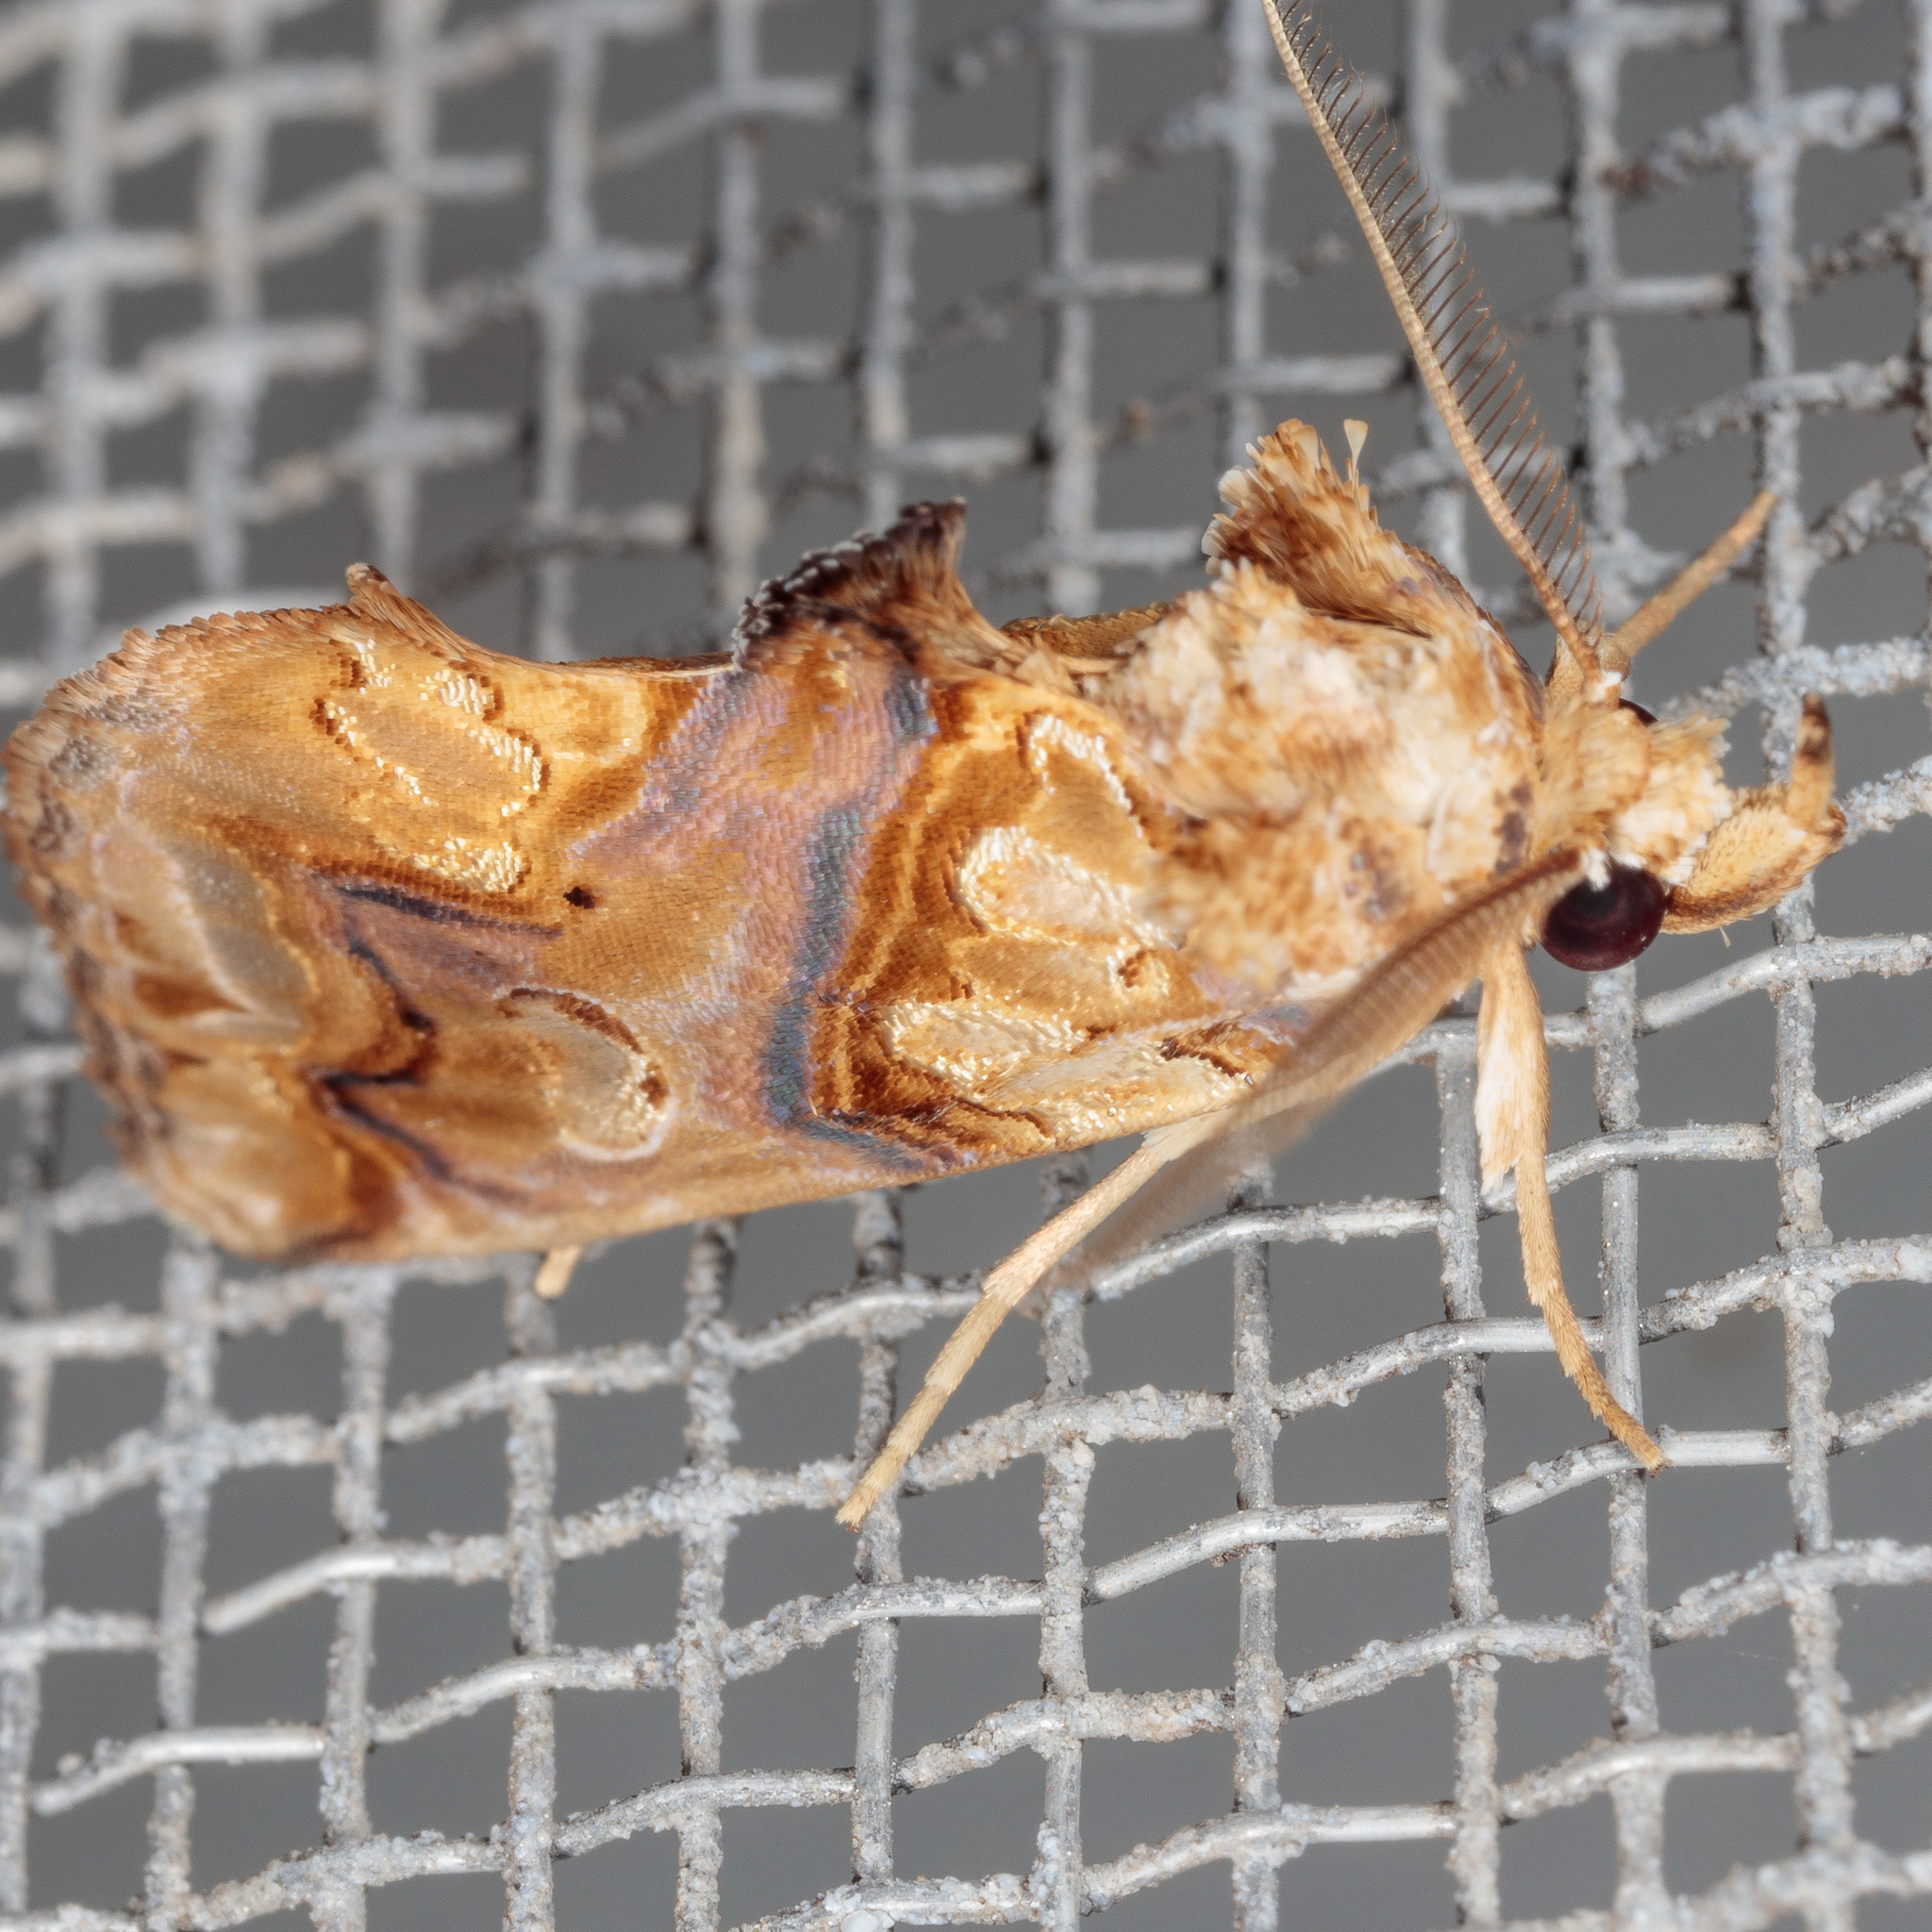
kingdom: Animalia
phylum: Arthropoda
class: Insecta
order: Lepidoptera
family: Erebidae
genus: Plusiodonta
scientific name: Plusiodonta compressipalpis
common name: Moonseed moth
